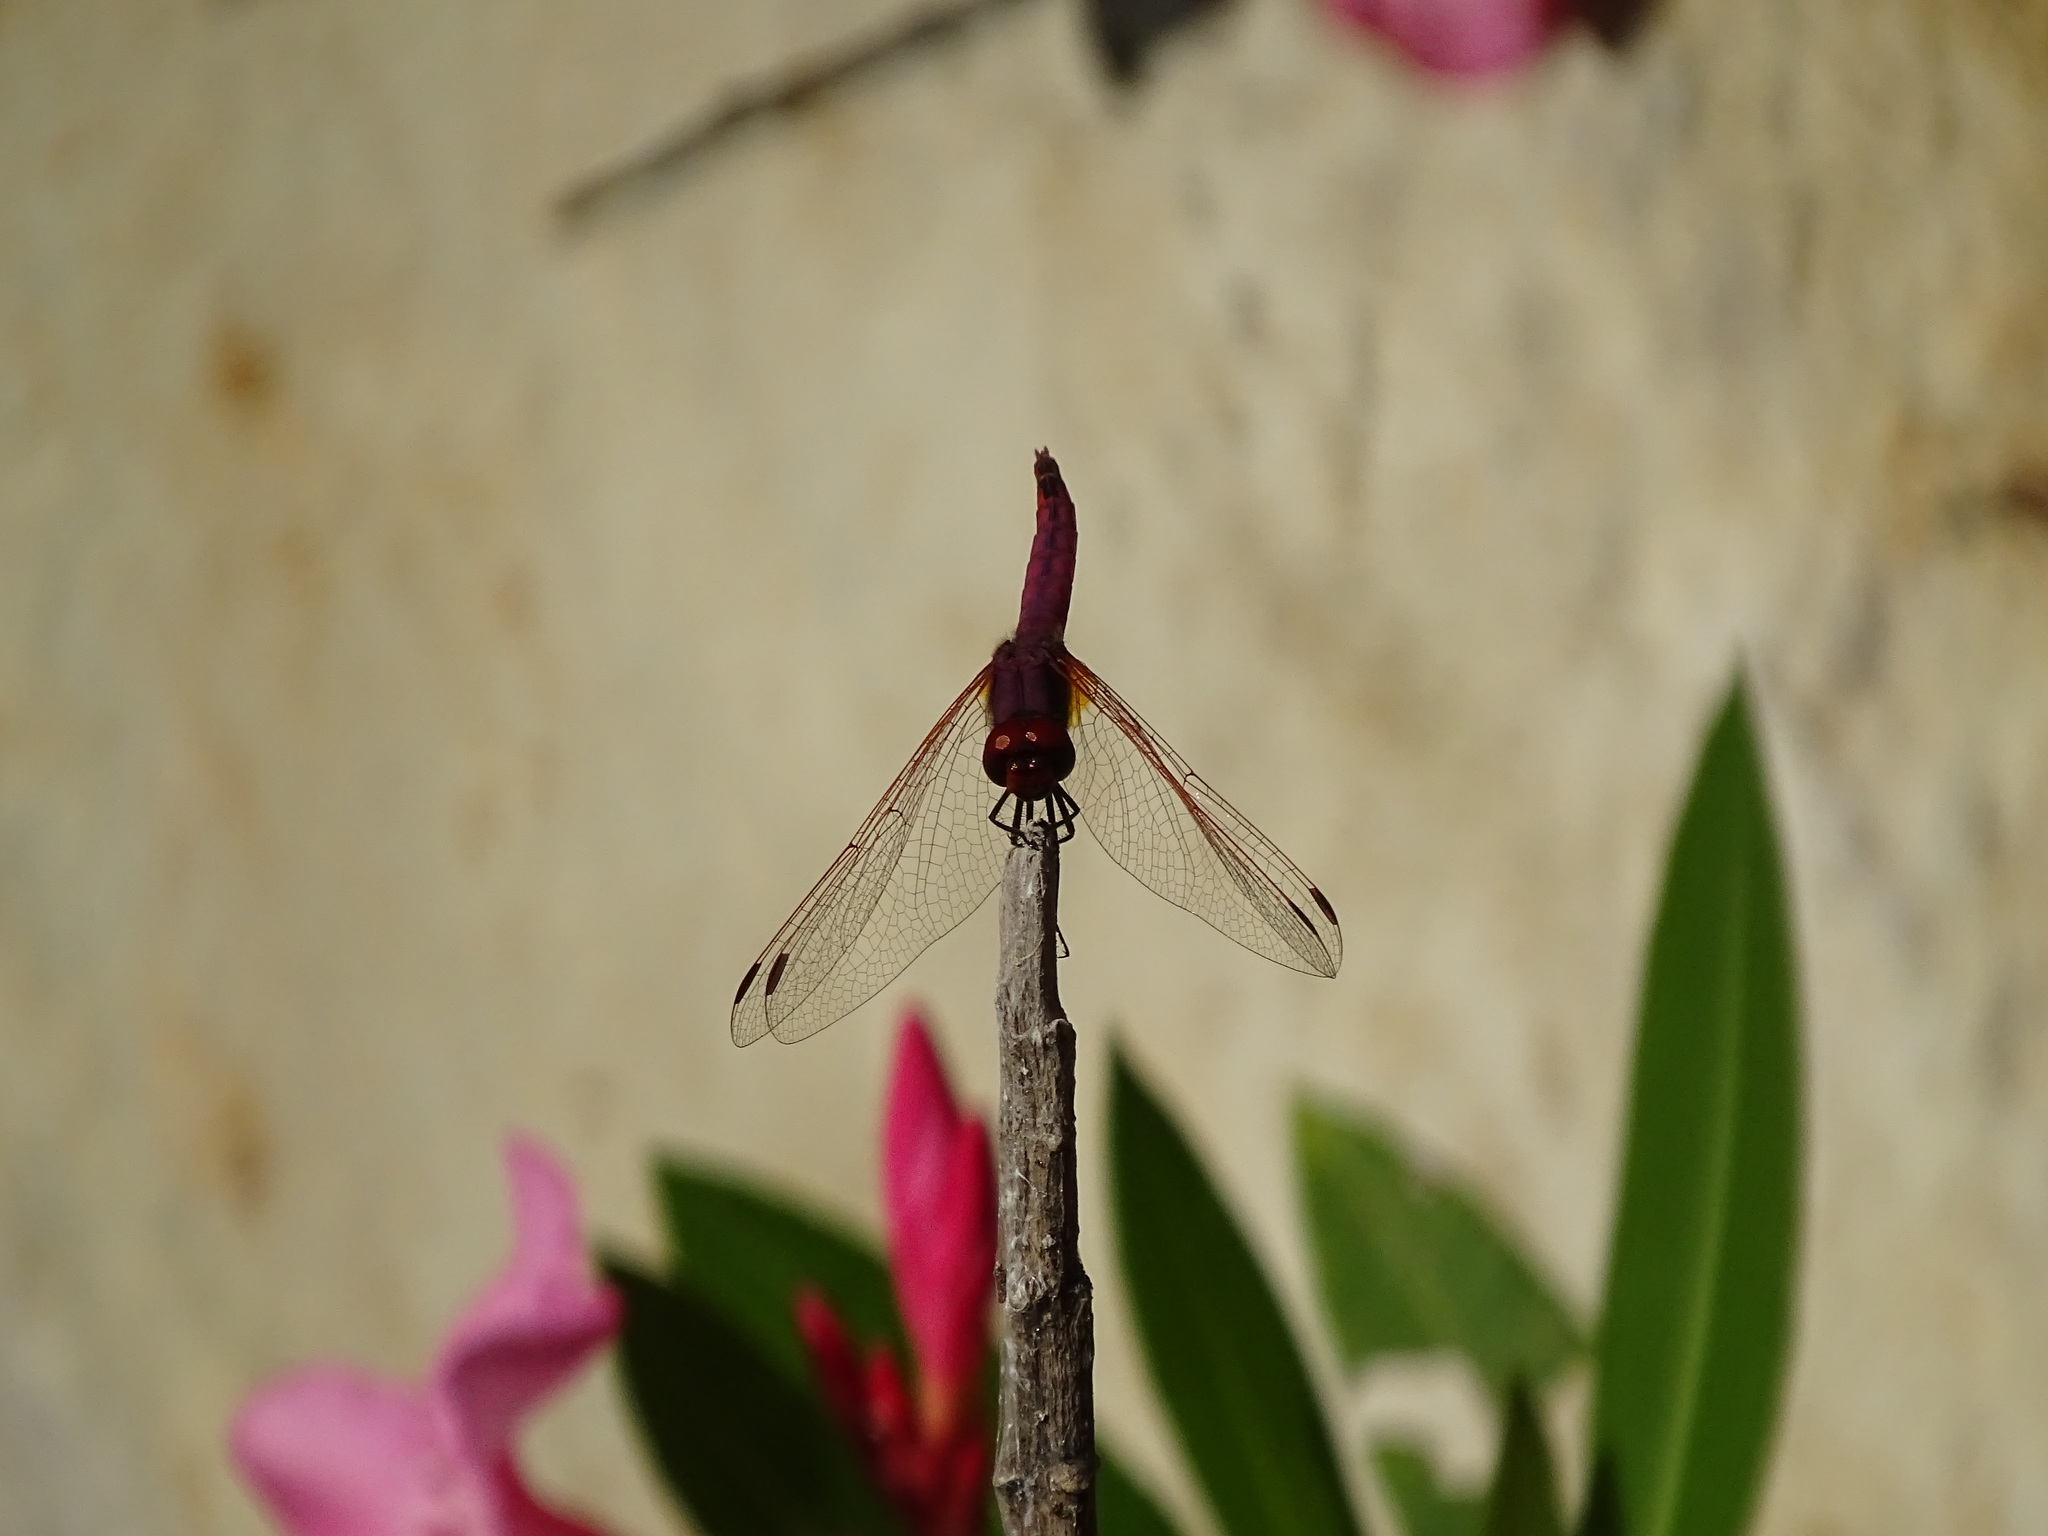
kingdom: Animalia
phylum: Arthropoda
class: Insecta
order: Odonata
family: Libellulidae
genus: Trithemis
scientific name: Trithemis annulata
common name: Violet dropwing
